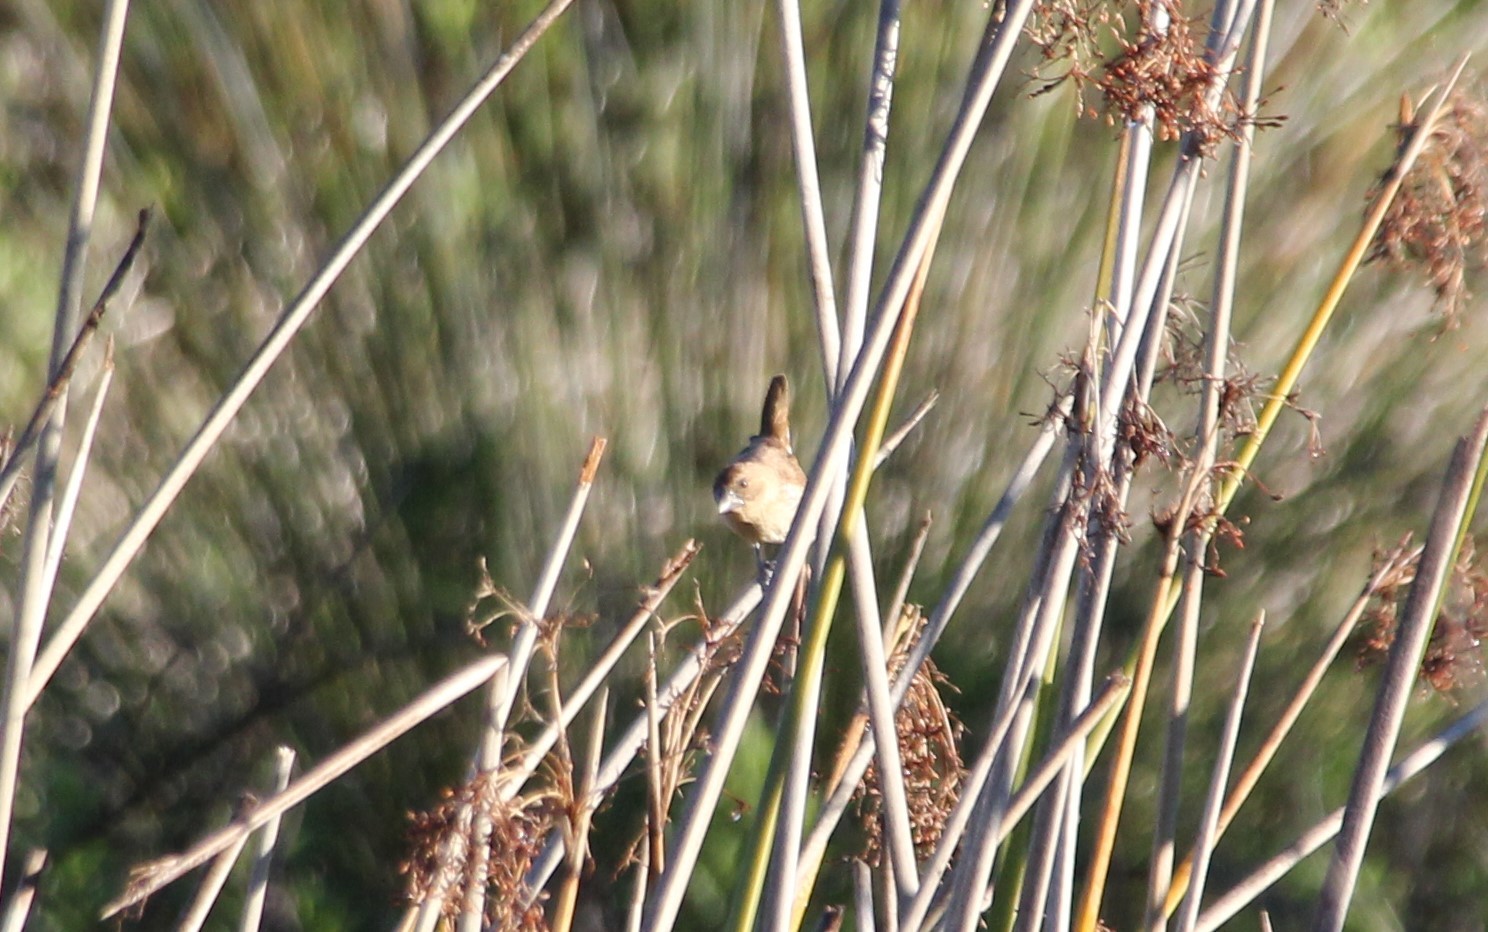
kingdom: Animalia
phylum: Chordata
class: Aves
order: Passeriformes
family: Estrildidae
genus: Lonchura
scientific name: Lonchura punctulata
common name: Scaly-breasted munia
